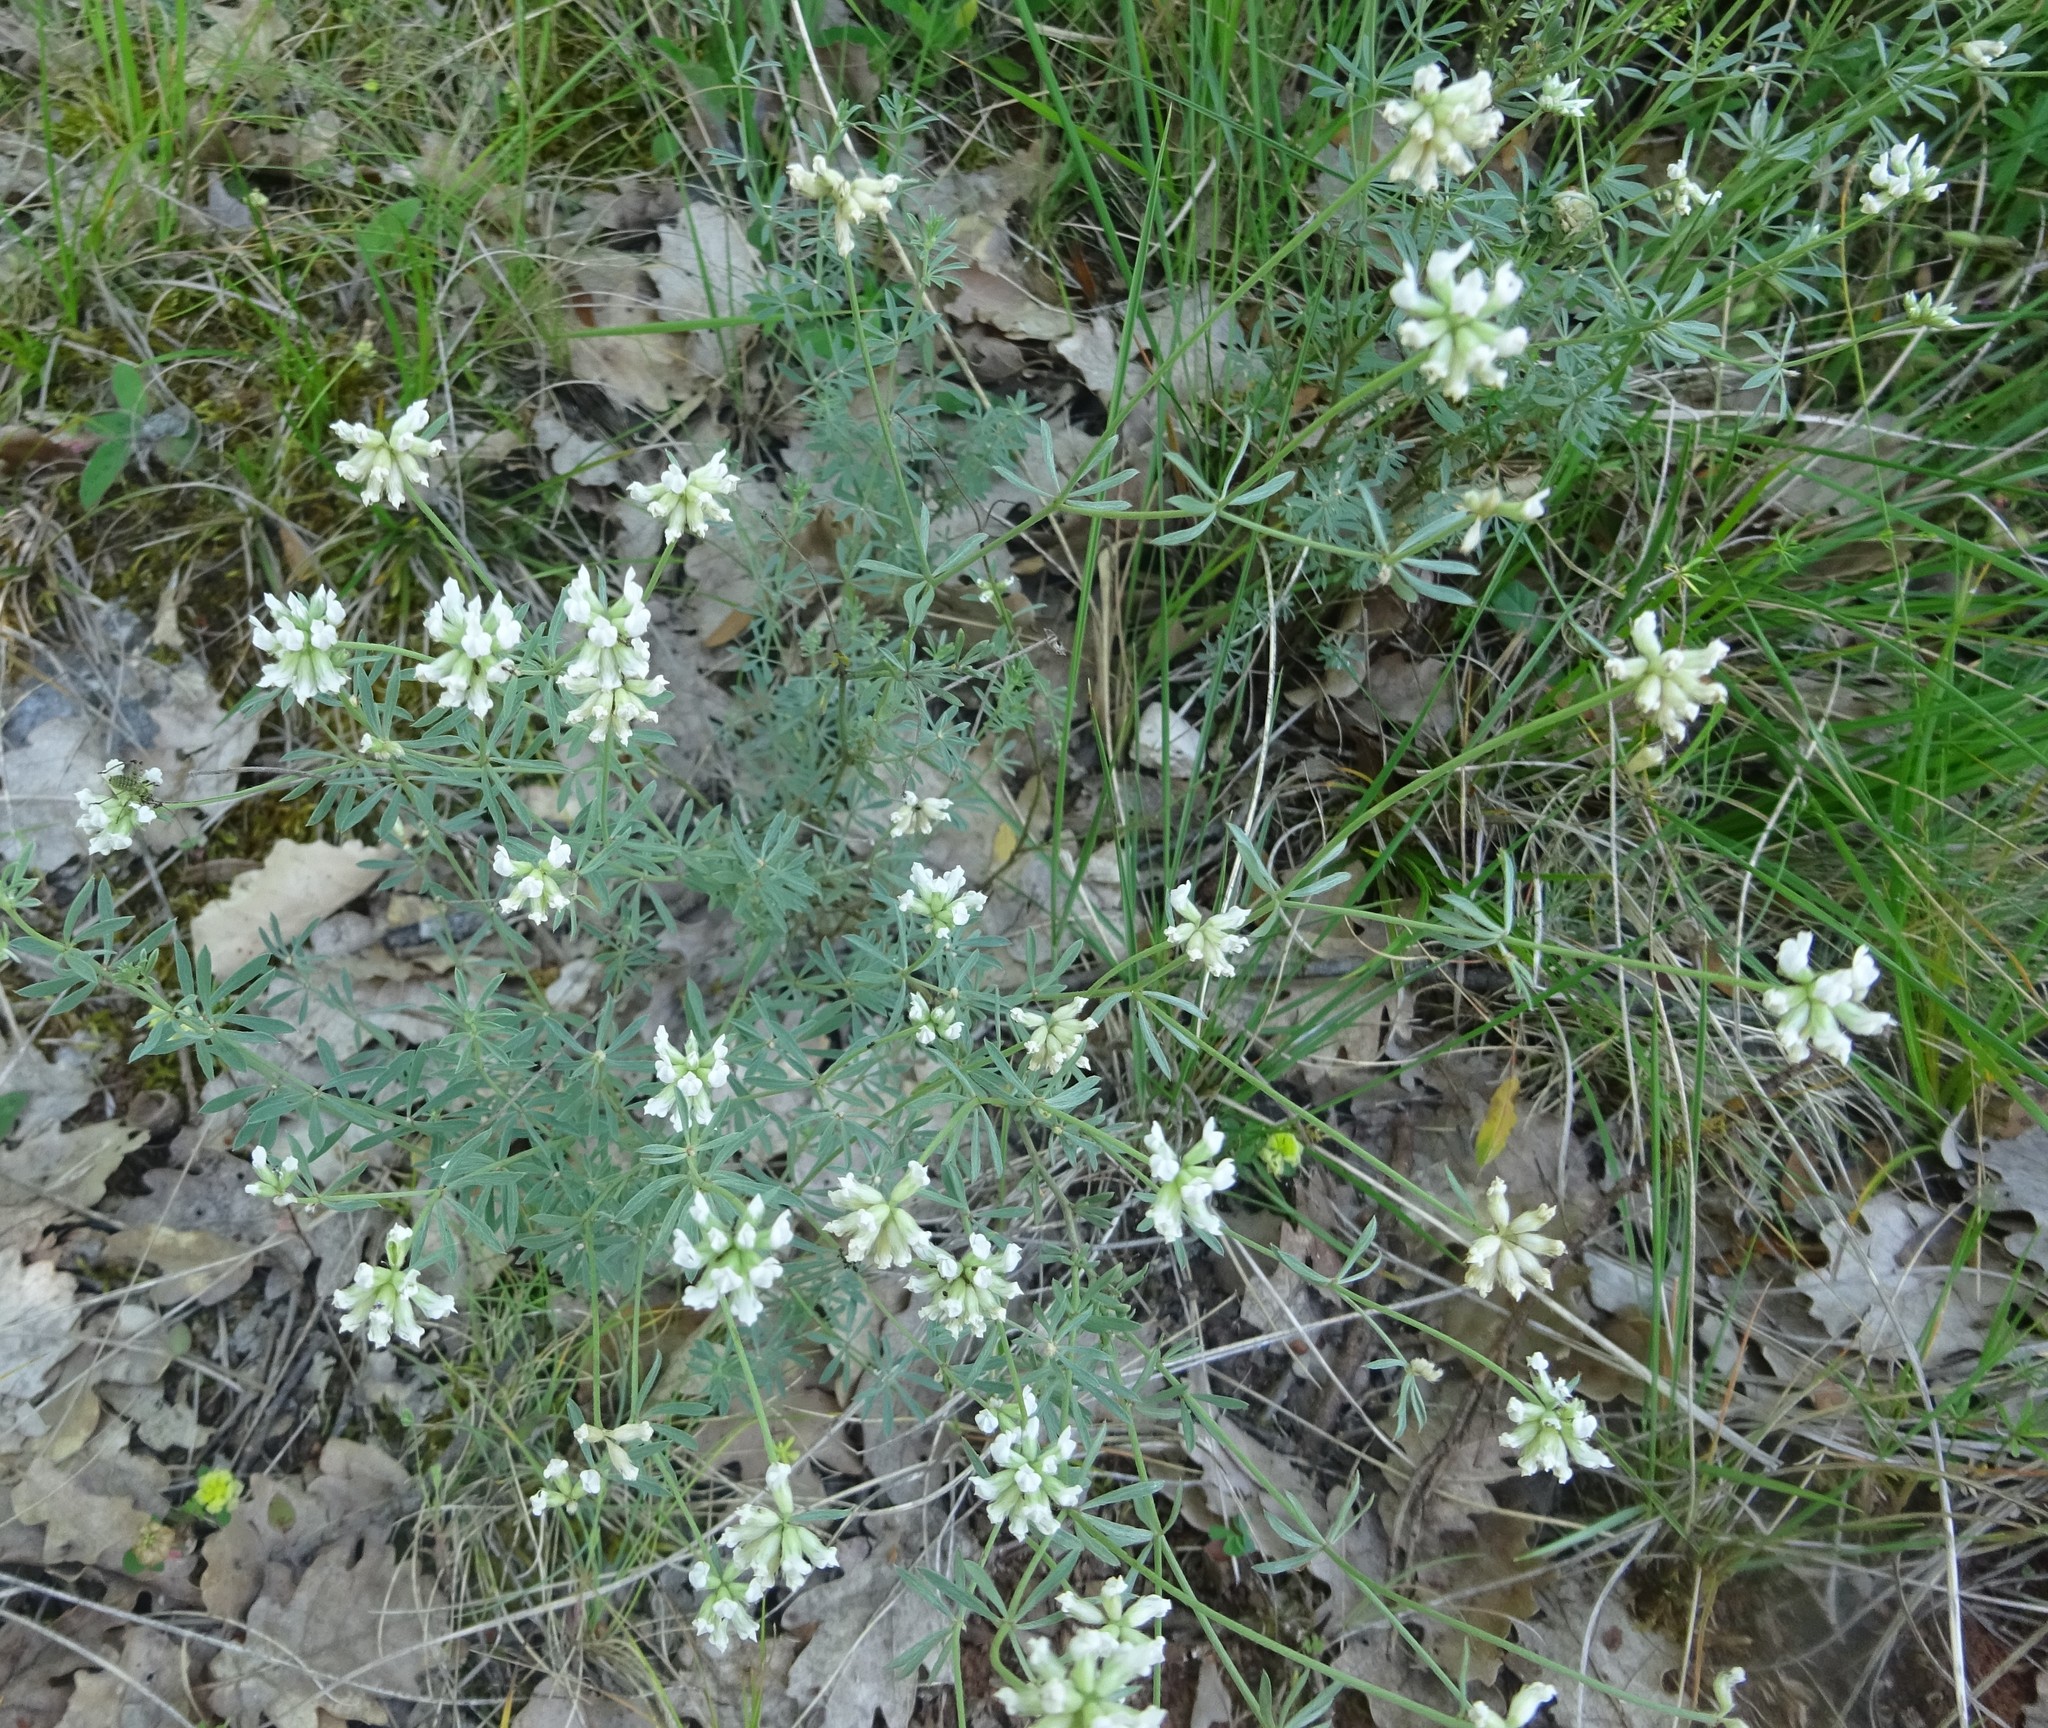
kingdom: Plantae
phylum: Tracheophyta
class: Magnoliopsida
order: Fabales
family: Fabaceae
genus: Lotus
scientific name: Lotus dorycnium
